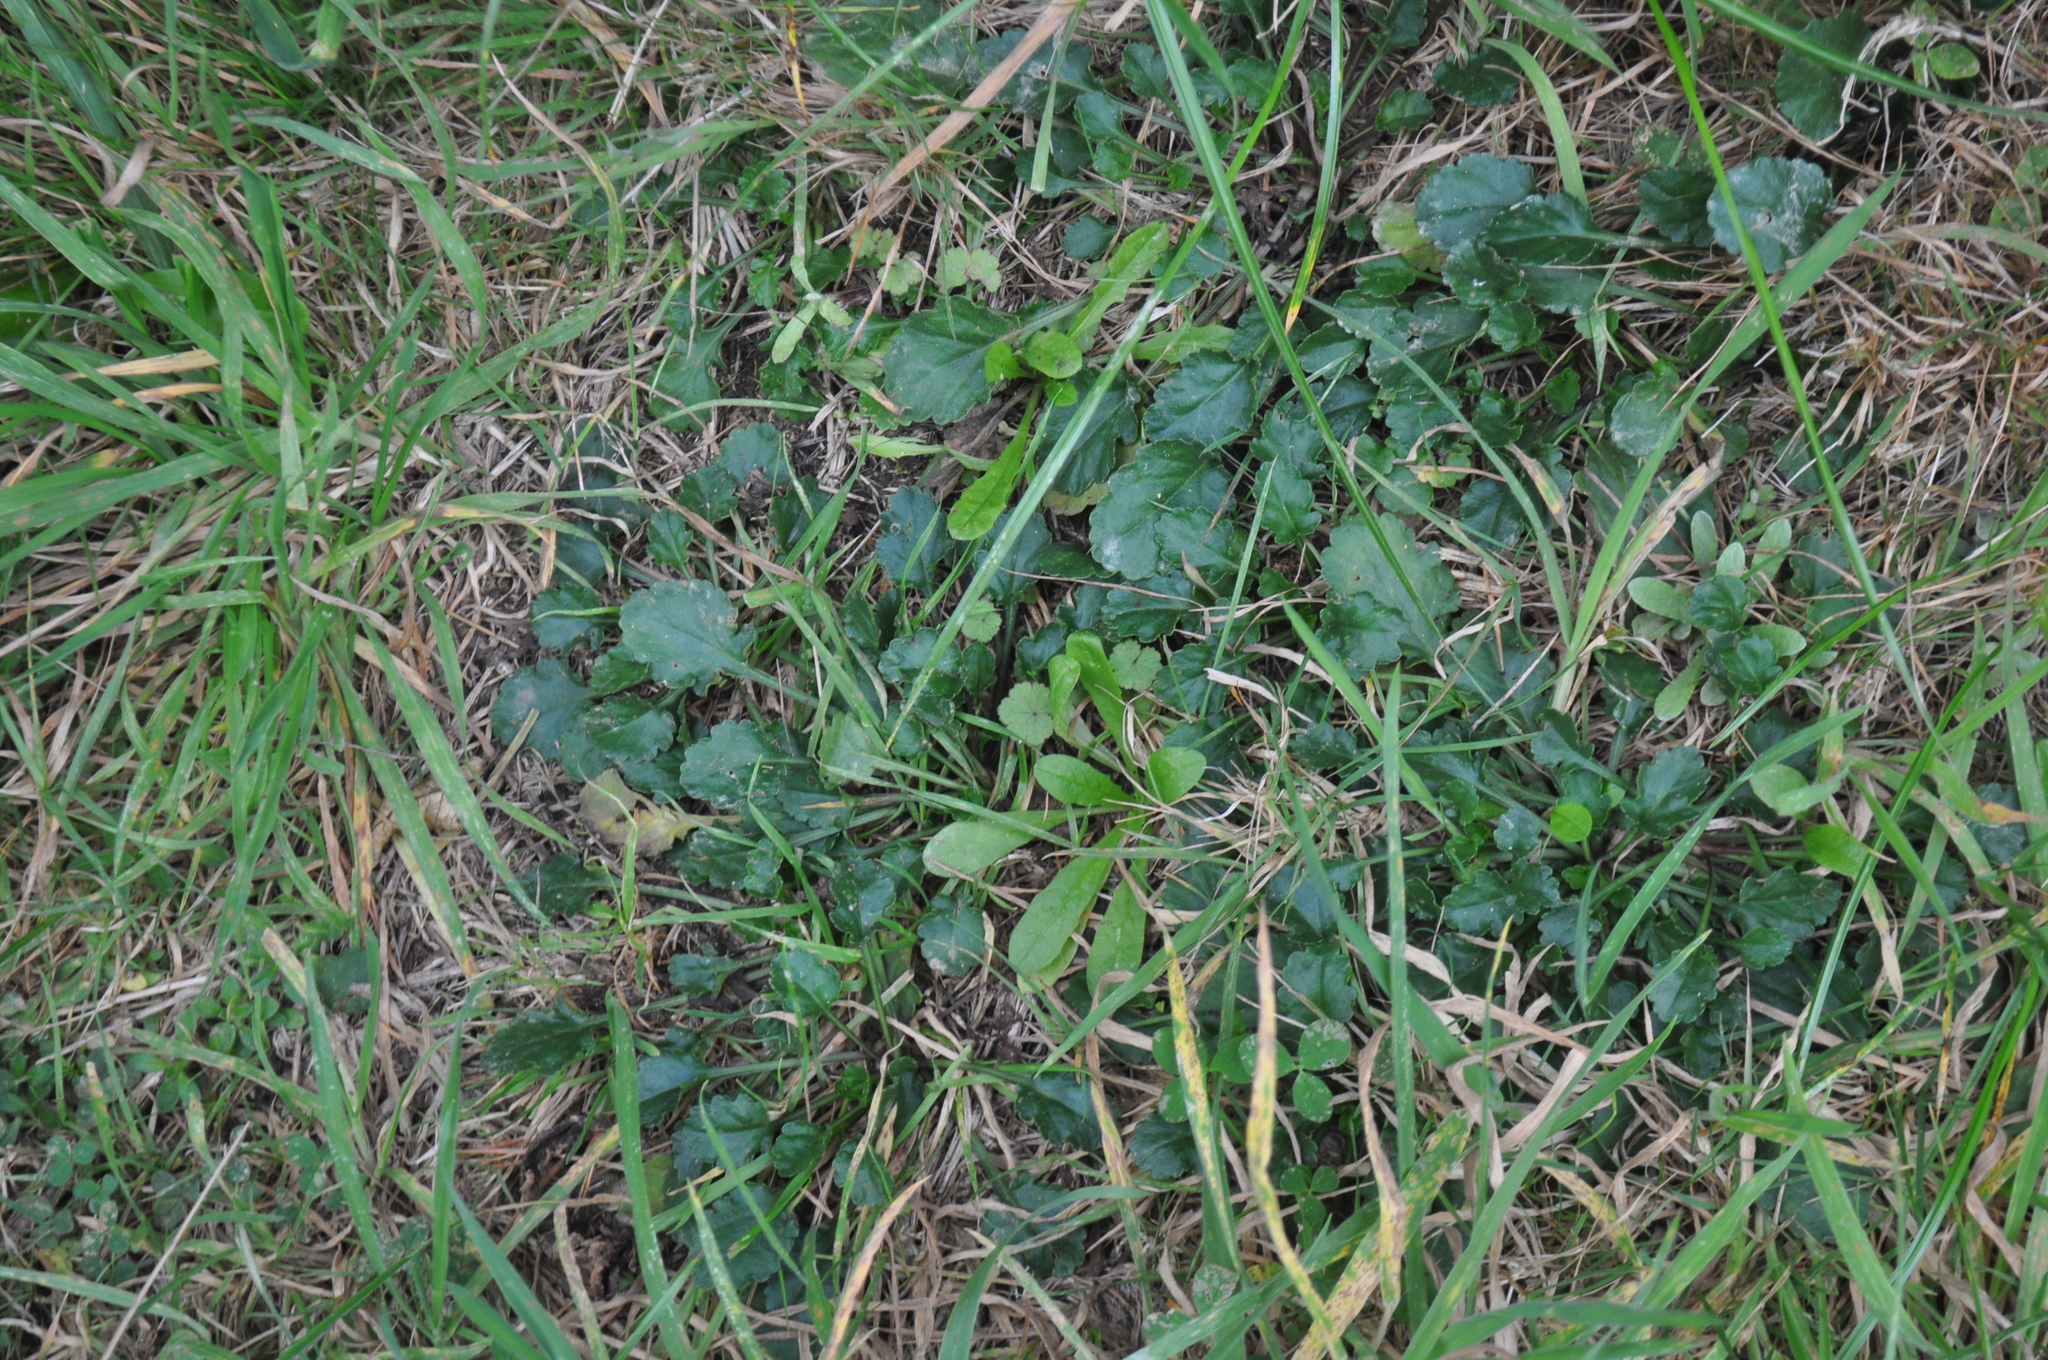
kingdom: Plantae
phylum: Tracheophyta
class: Magnoliopsida
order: Asterales
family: Asteraceae
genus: Leucanthemum
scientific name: Leucanthemum vulgare
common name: Oxeye daisy
